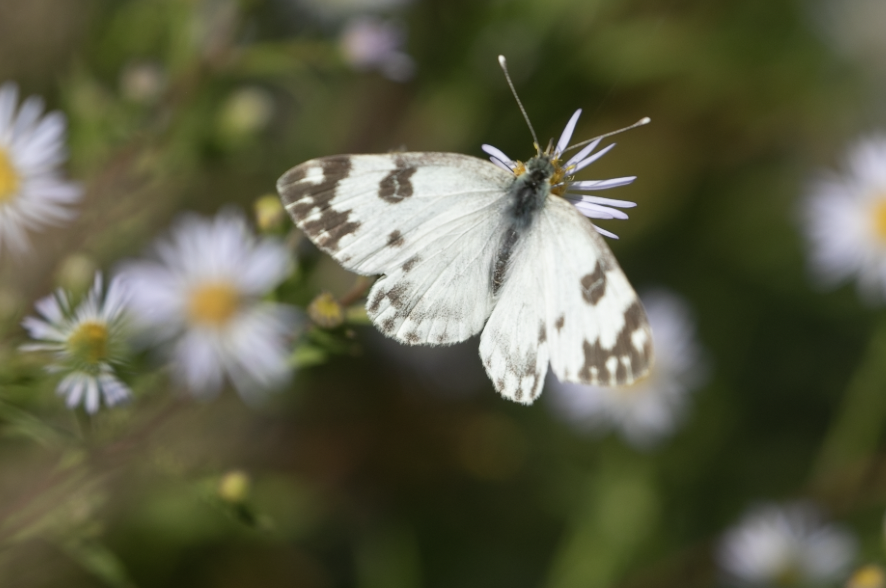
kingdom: Animalia
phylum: Arthropoda
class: Insecta
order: Lepidoptera
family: Pieridae
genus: Pontia
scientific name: Pontia edusa
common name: Eastern bath white
